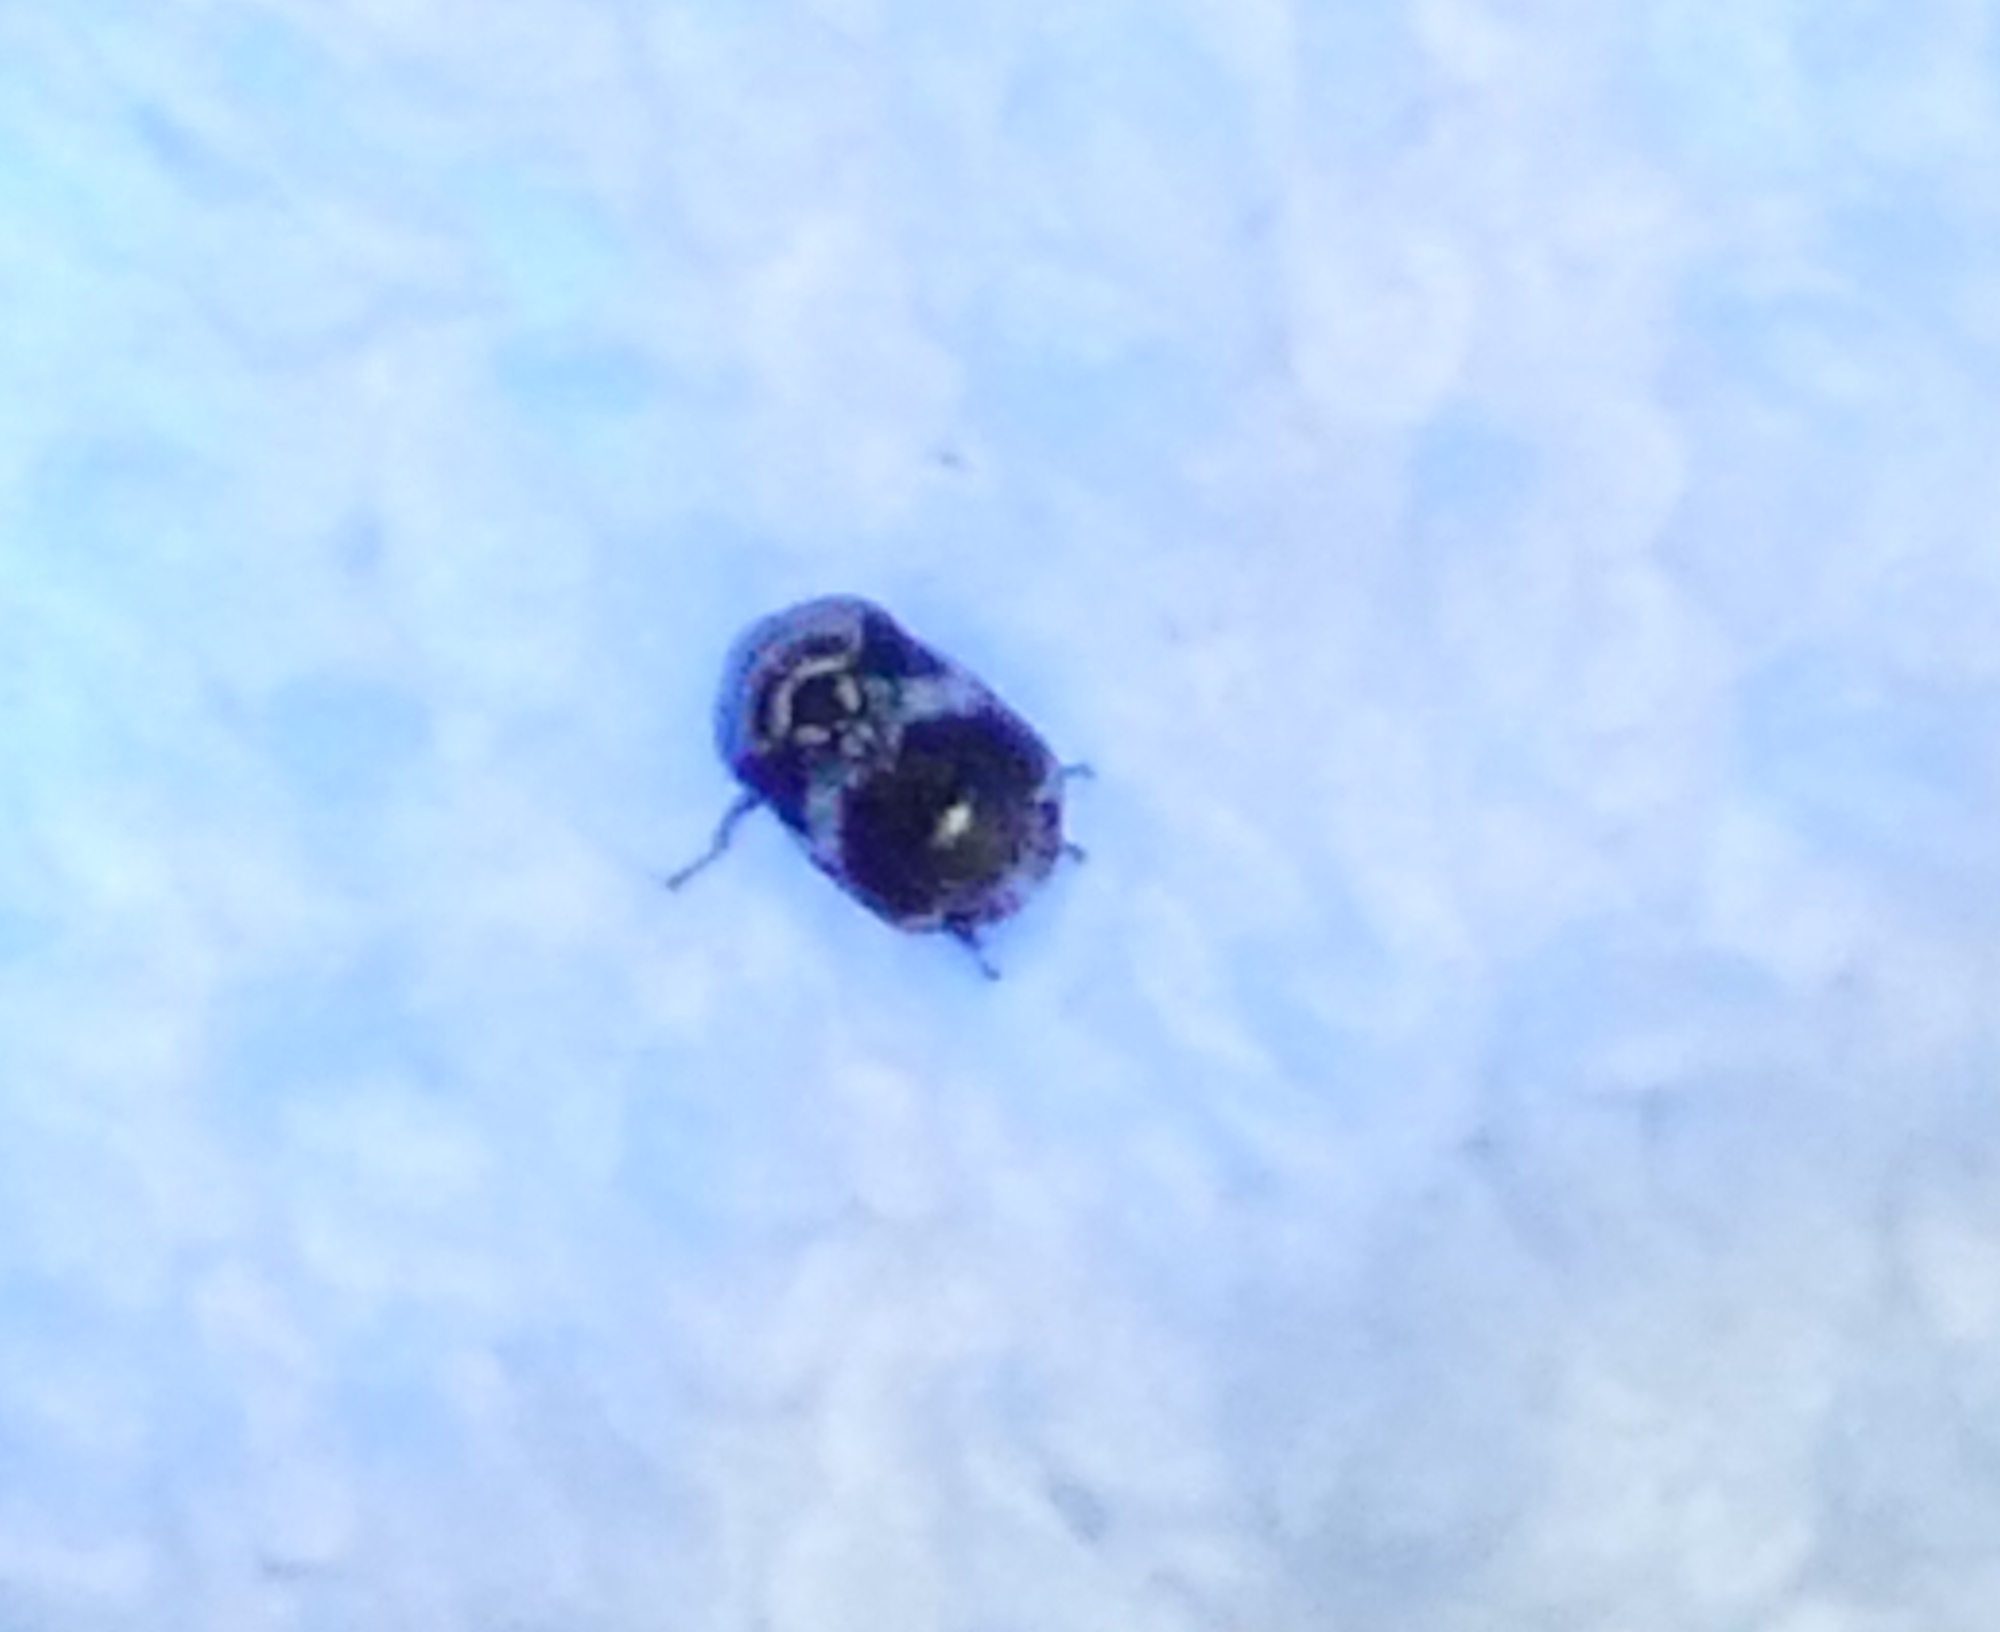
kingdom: Animalia
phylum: Arthropoda
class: Insecta
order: Hemiptera
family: Clastopteridae
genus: Clastoptera
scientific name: Clastoptera arizonana
